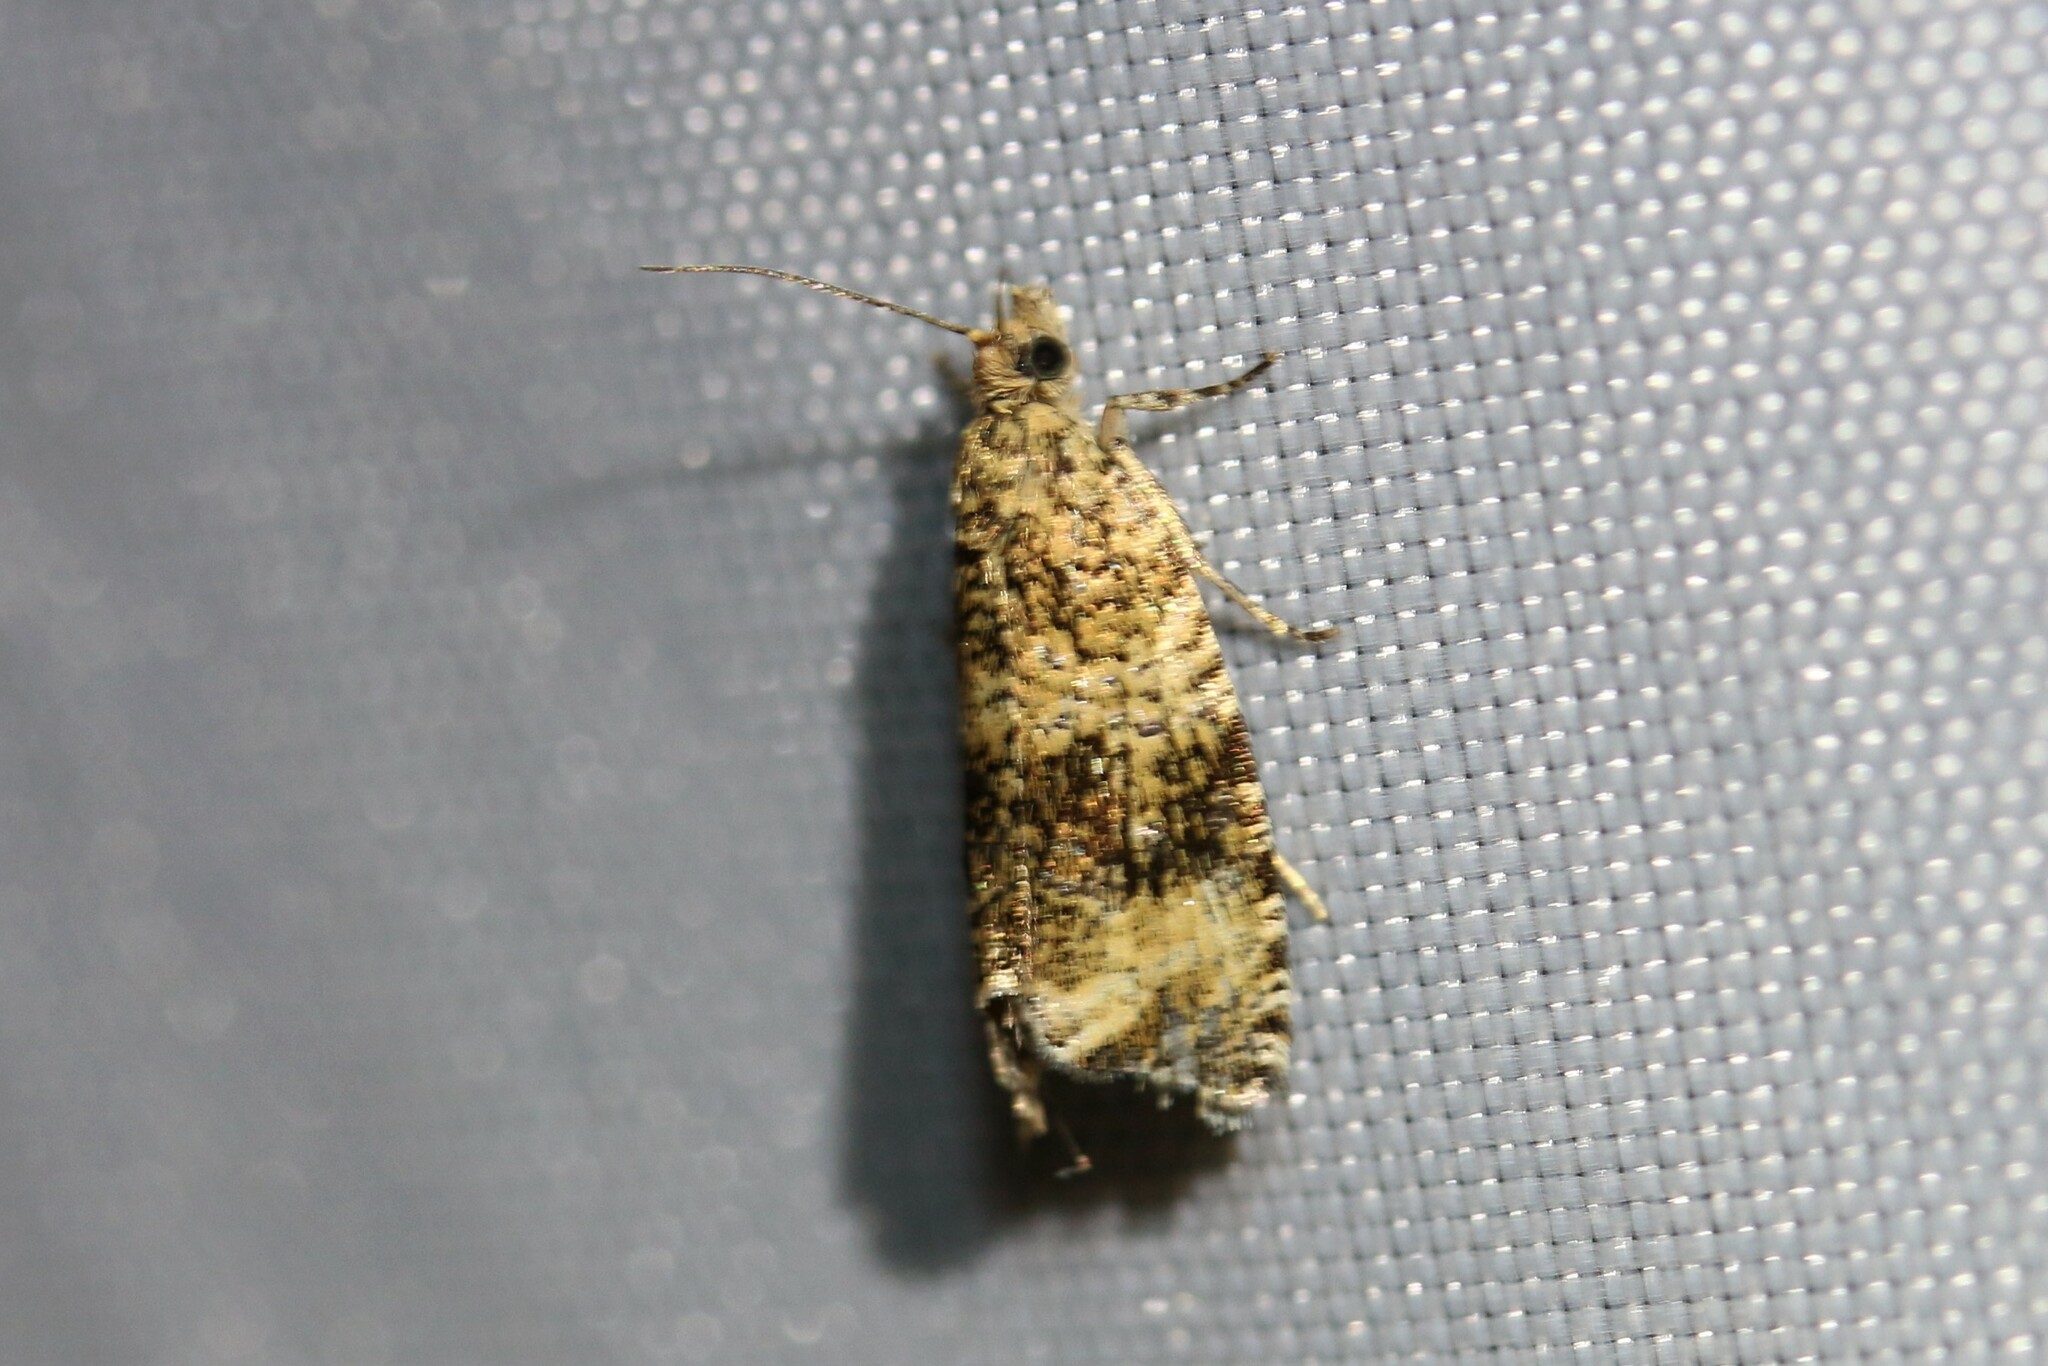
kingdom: Animalia
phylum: Arthropoda
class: Insecta
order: Lepidoptera
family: Tortricidae
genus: Syricoris
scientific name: Syricoris lacunana
